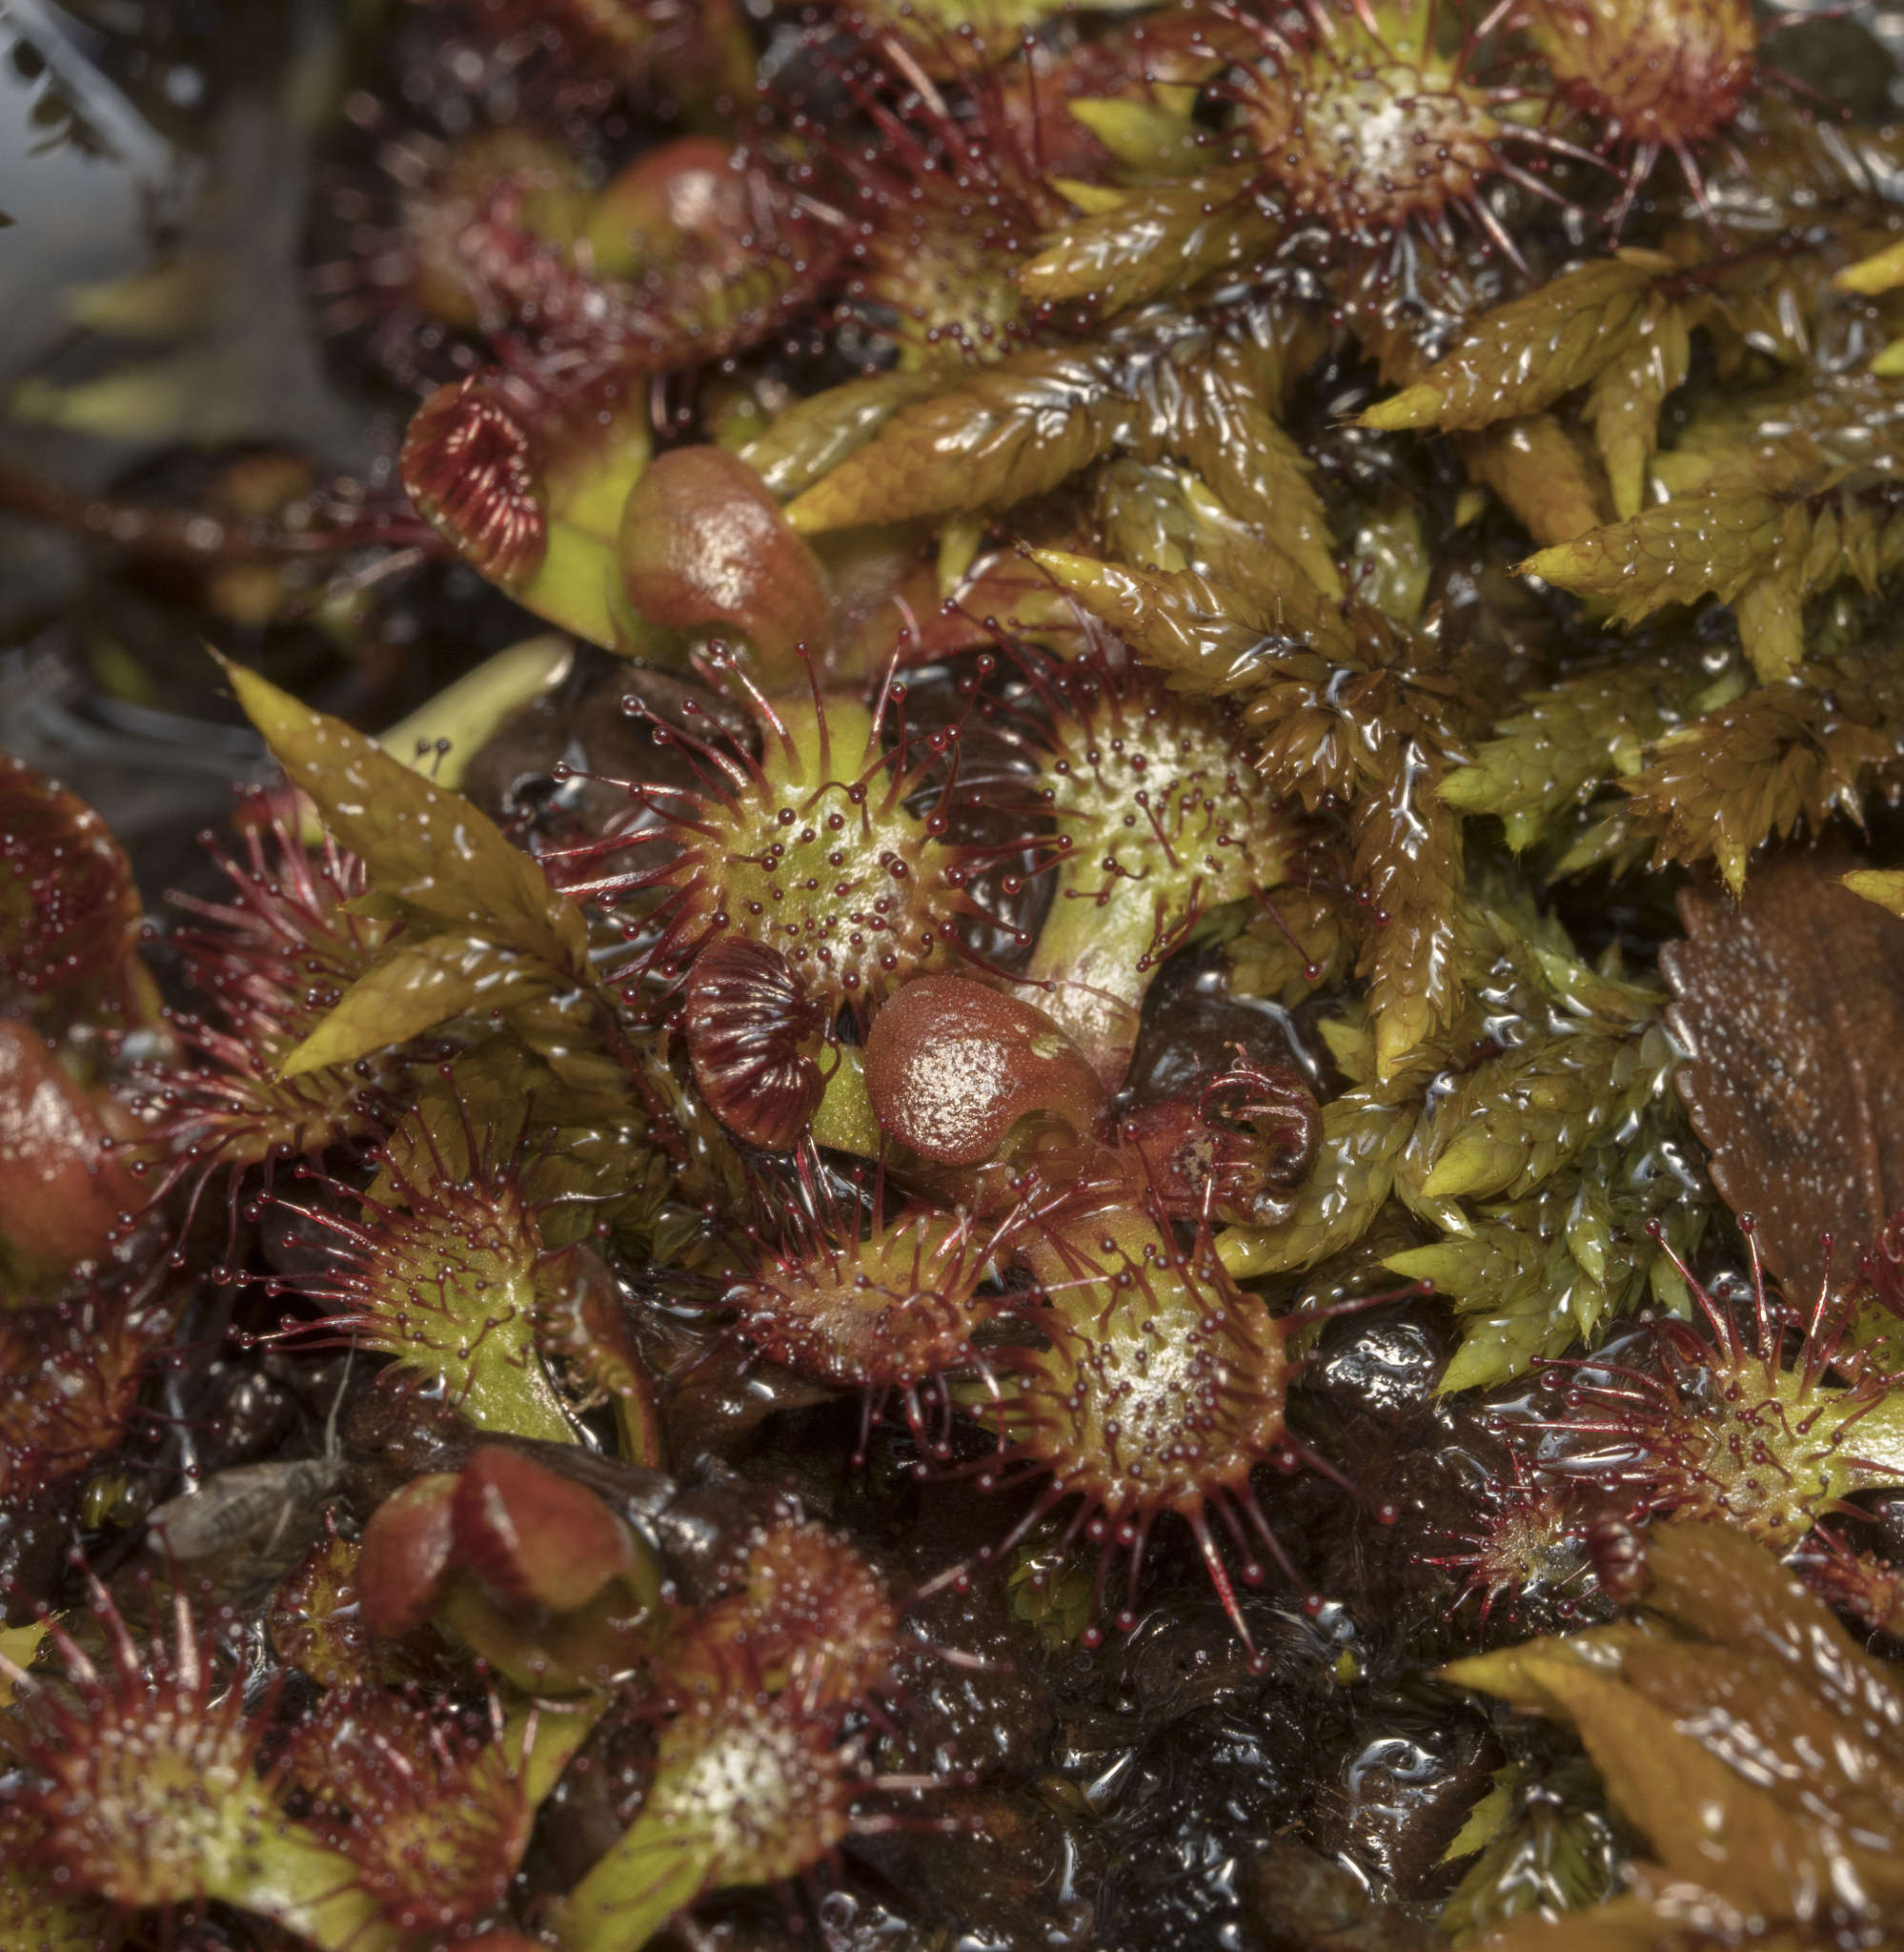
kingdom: Plantae
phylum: Tracheophyta
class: Magnoliopsida
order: Caryophyllales
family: Droseraceae
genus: Drosera
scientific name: Drosera uniflora
